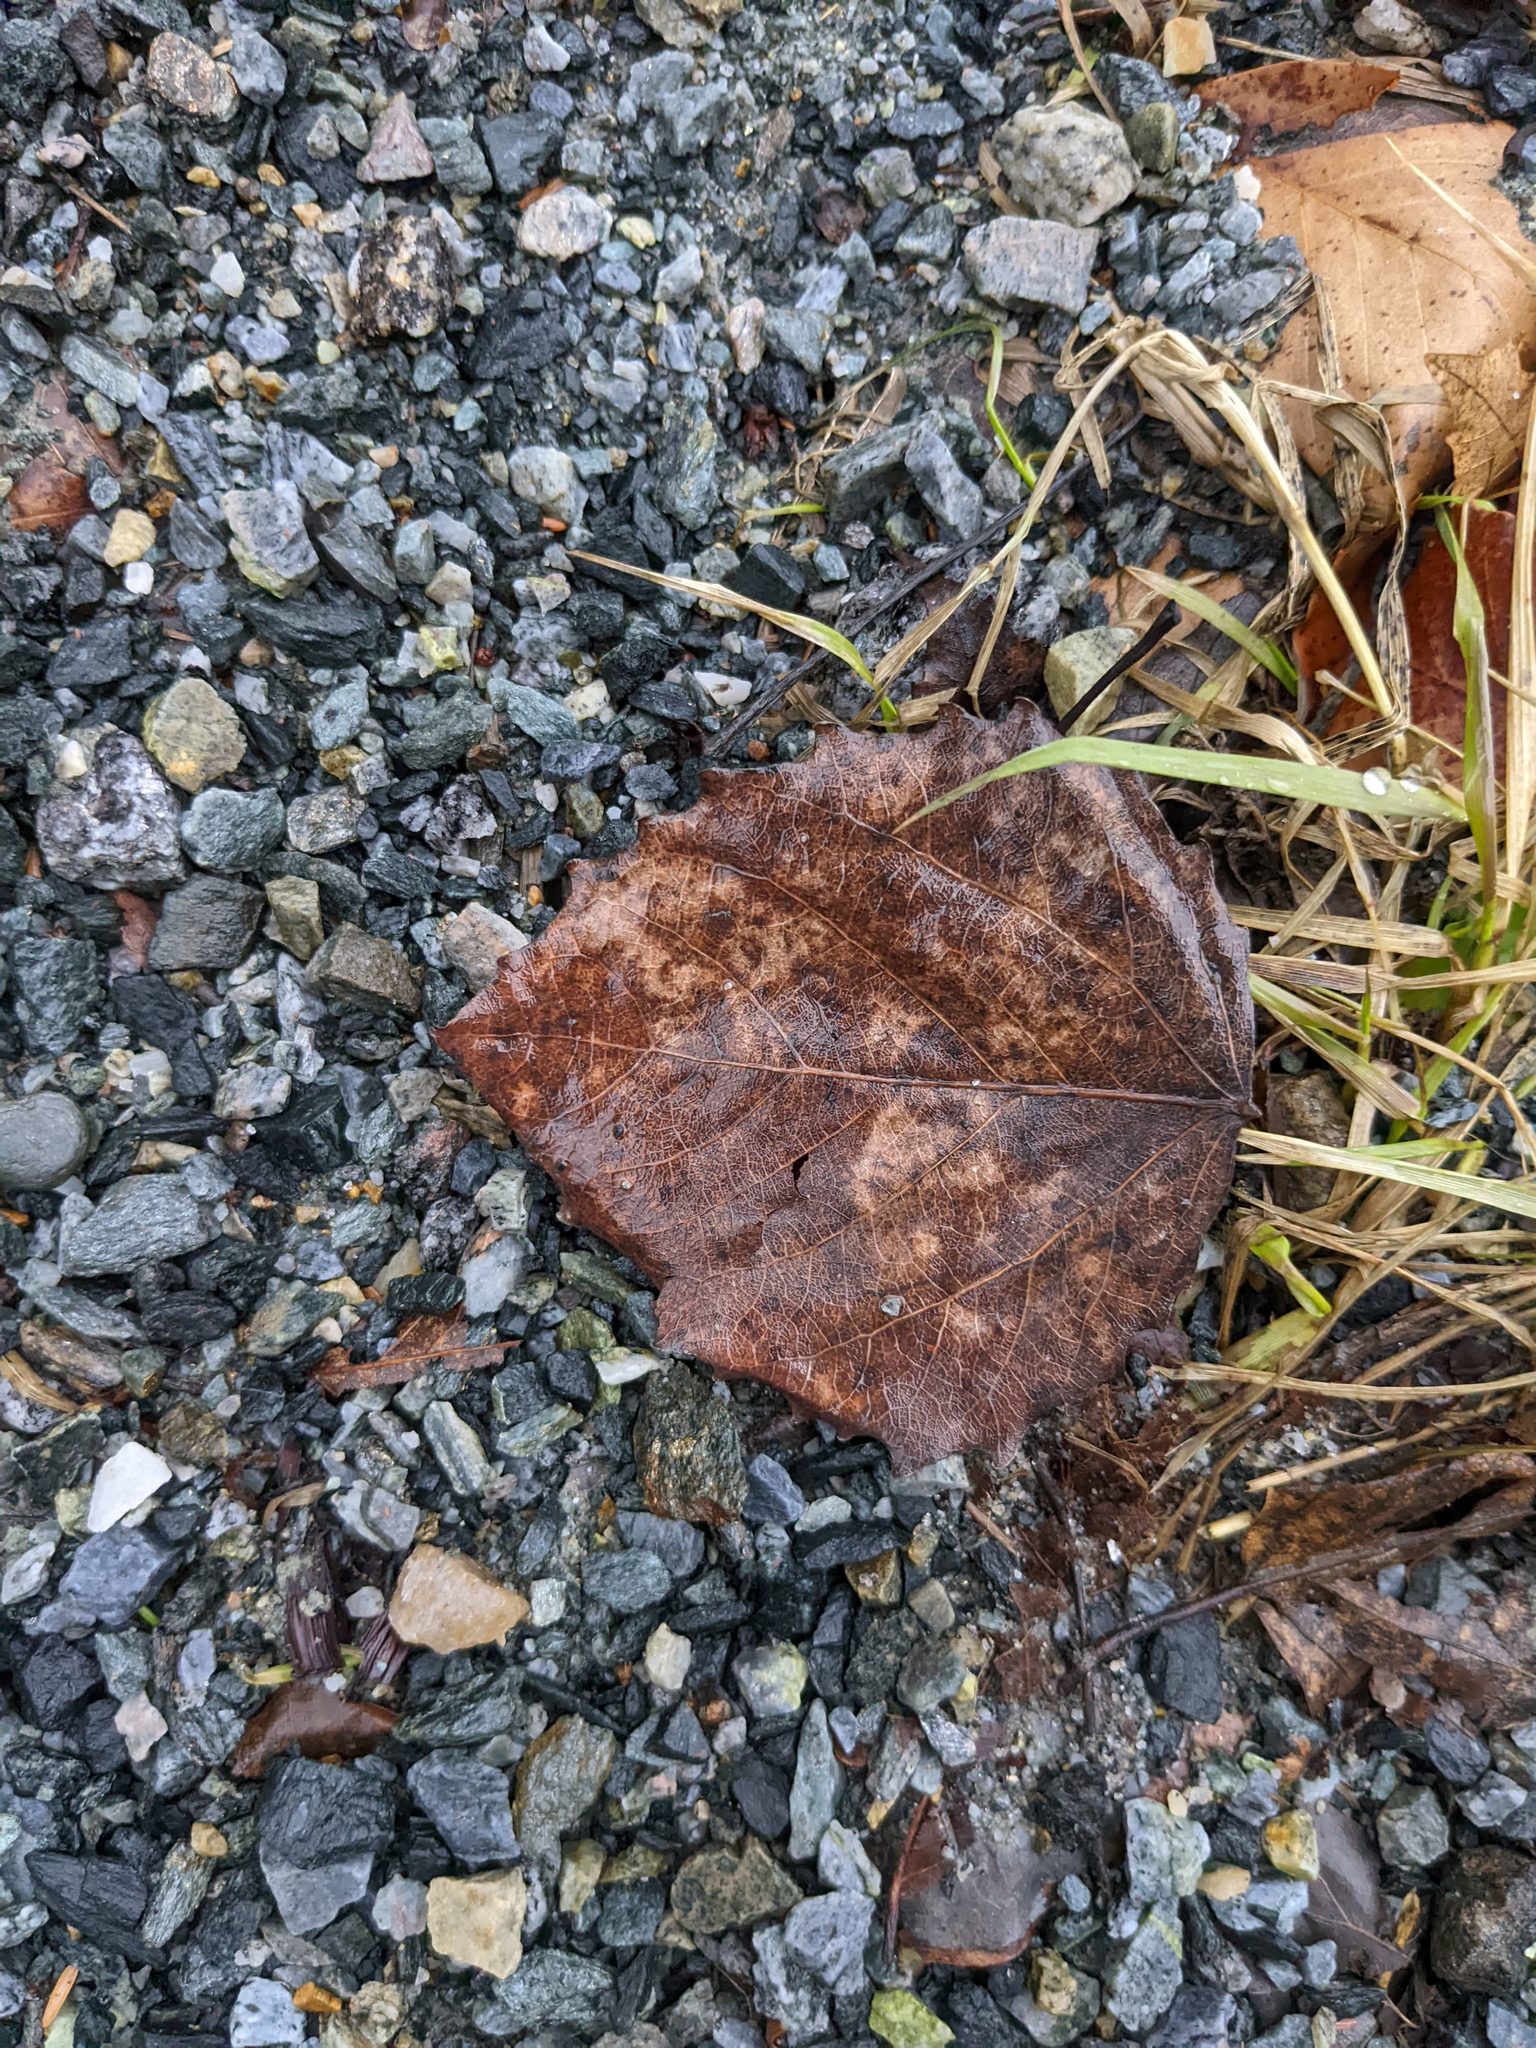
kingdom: Plantae
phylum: Tracheophyta
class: Magnoliopsida
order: Malpighiales
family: Salicaceae
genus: Populus
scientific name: Populus grandidentata
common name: Bigtooth aspen
